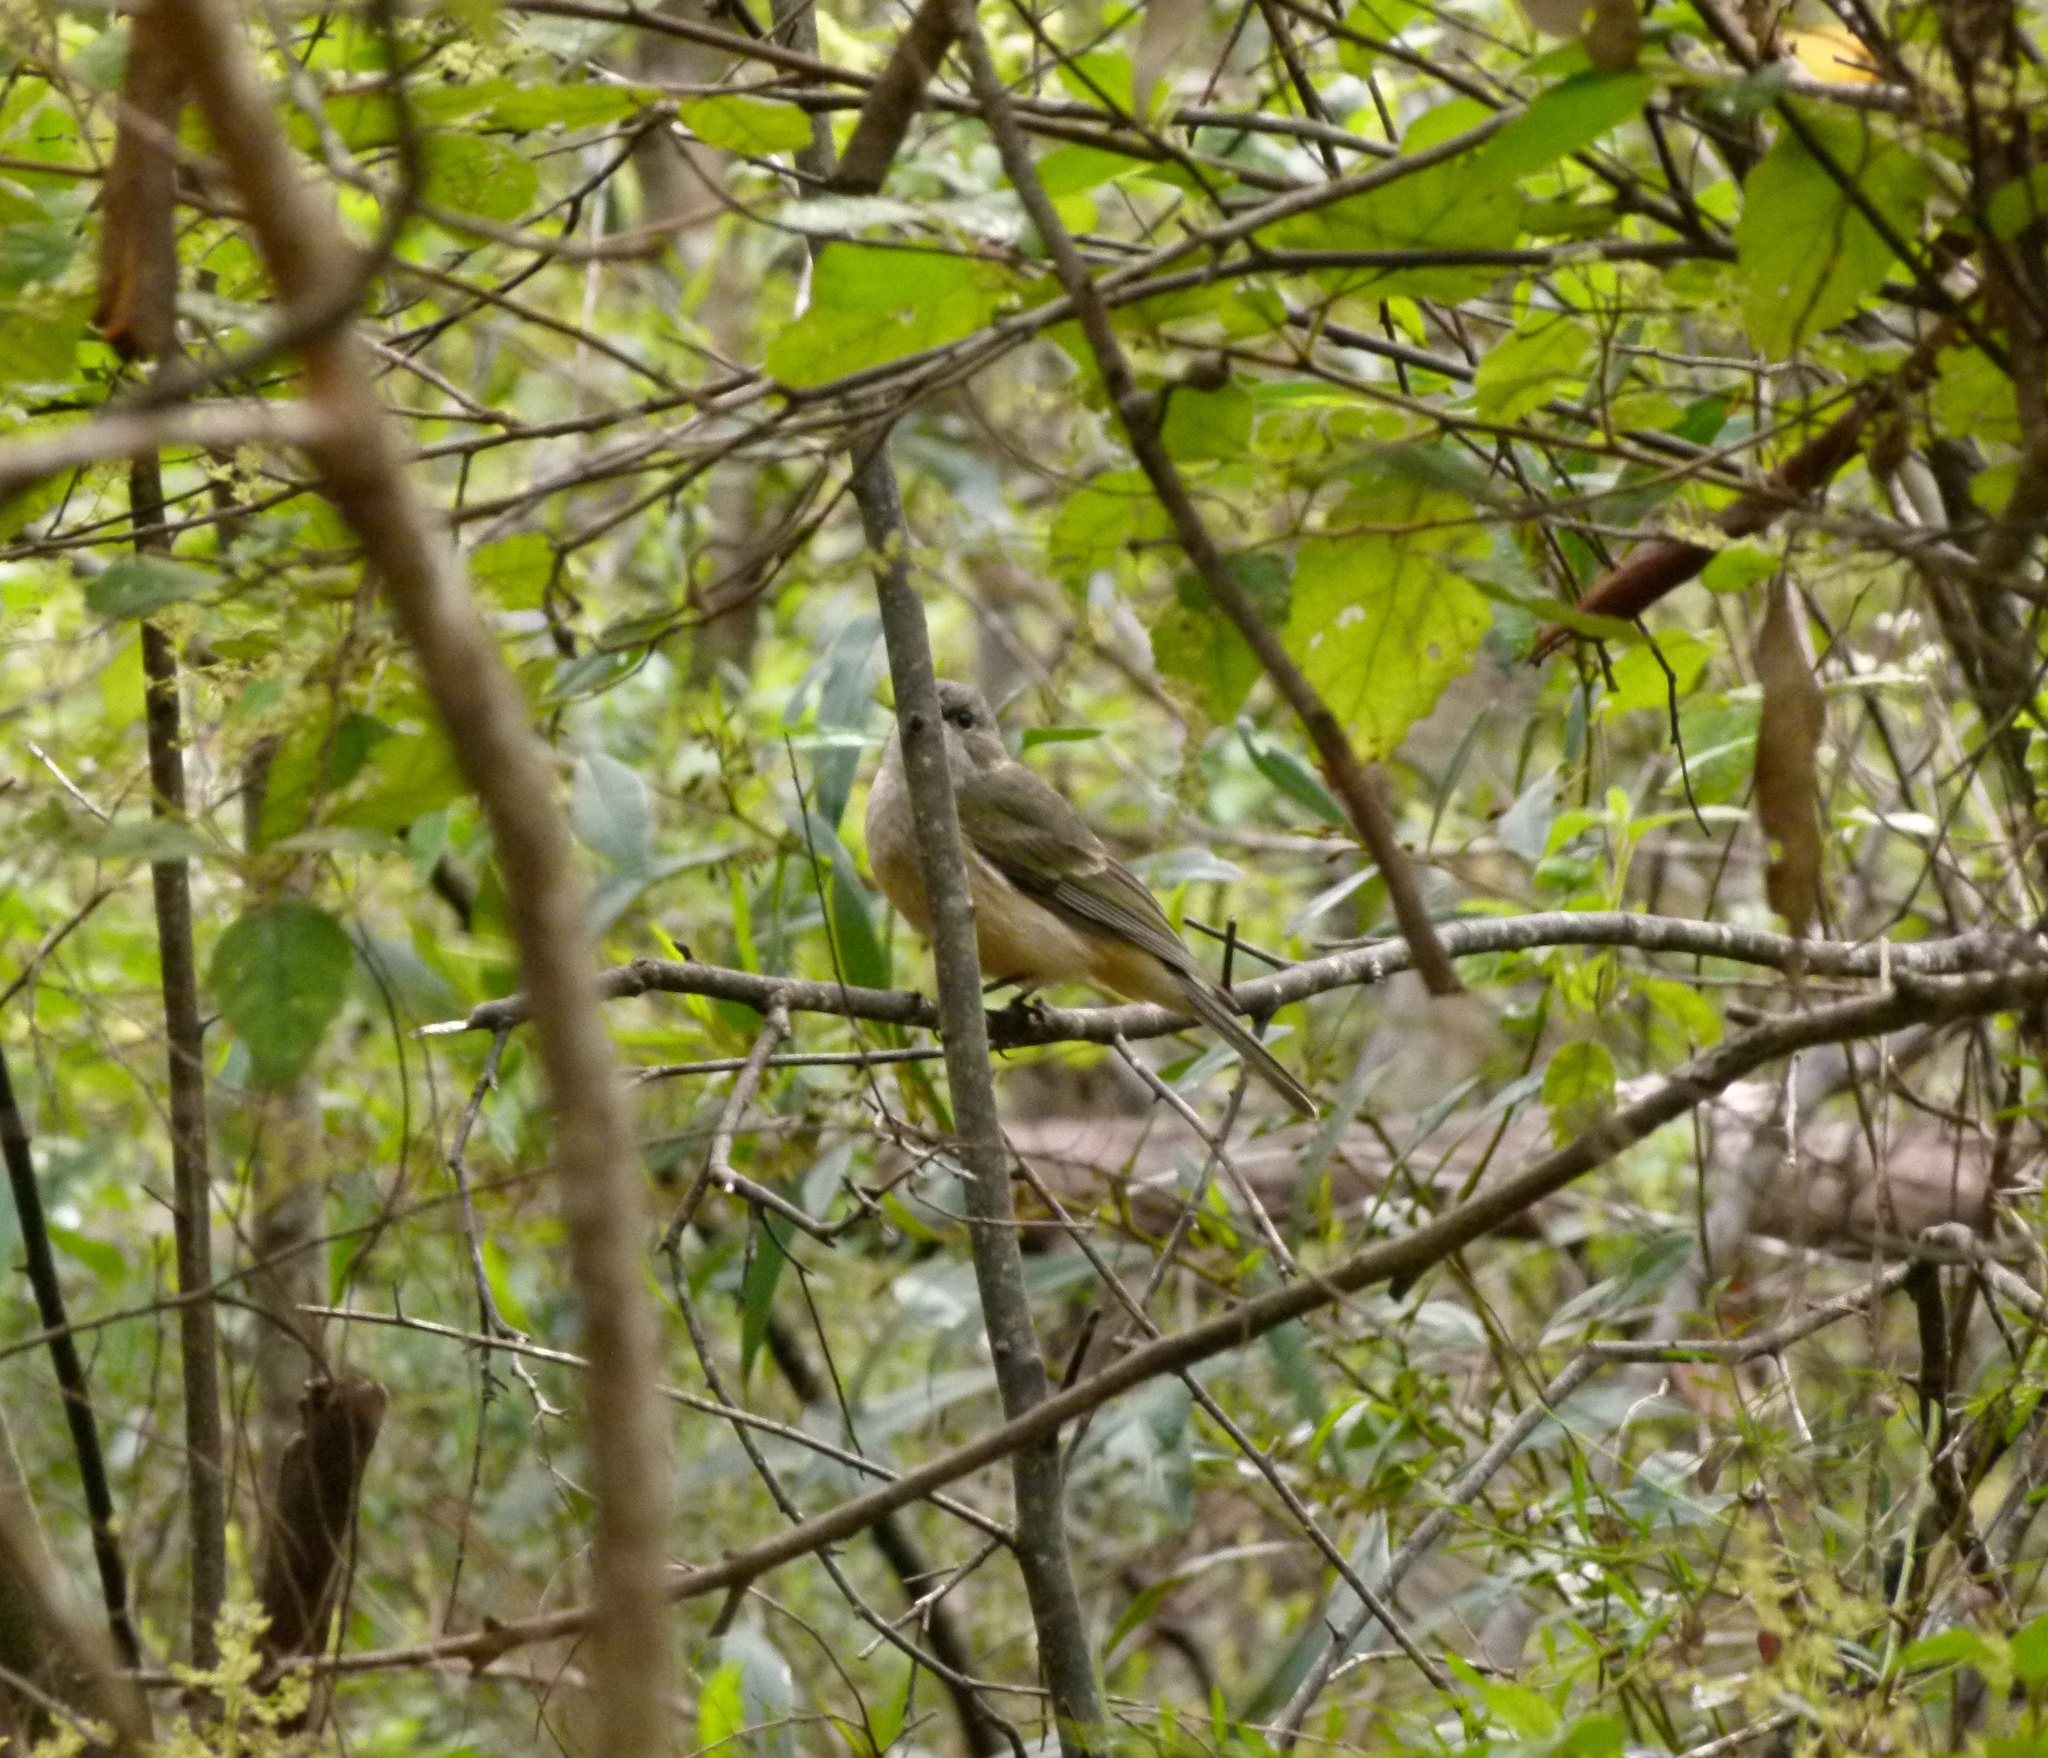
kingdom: Animalia
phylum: Chordata
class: Aves
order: Passeriformes
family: Pachycephalidae
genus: Pachycephala
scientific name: Pachycephala fuliginosa
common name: Western whistler
